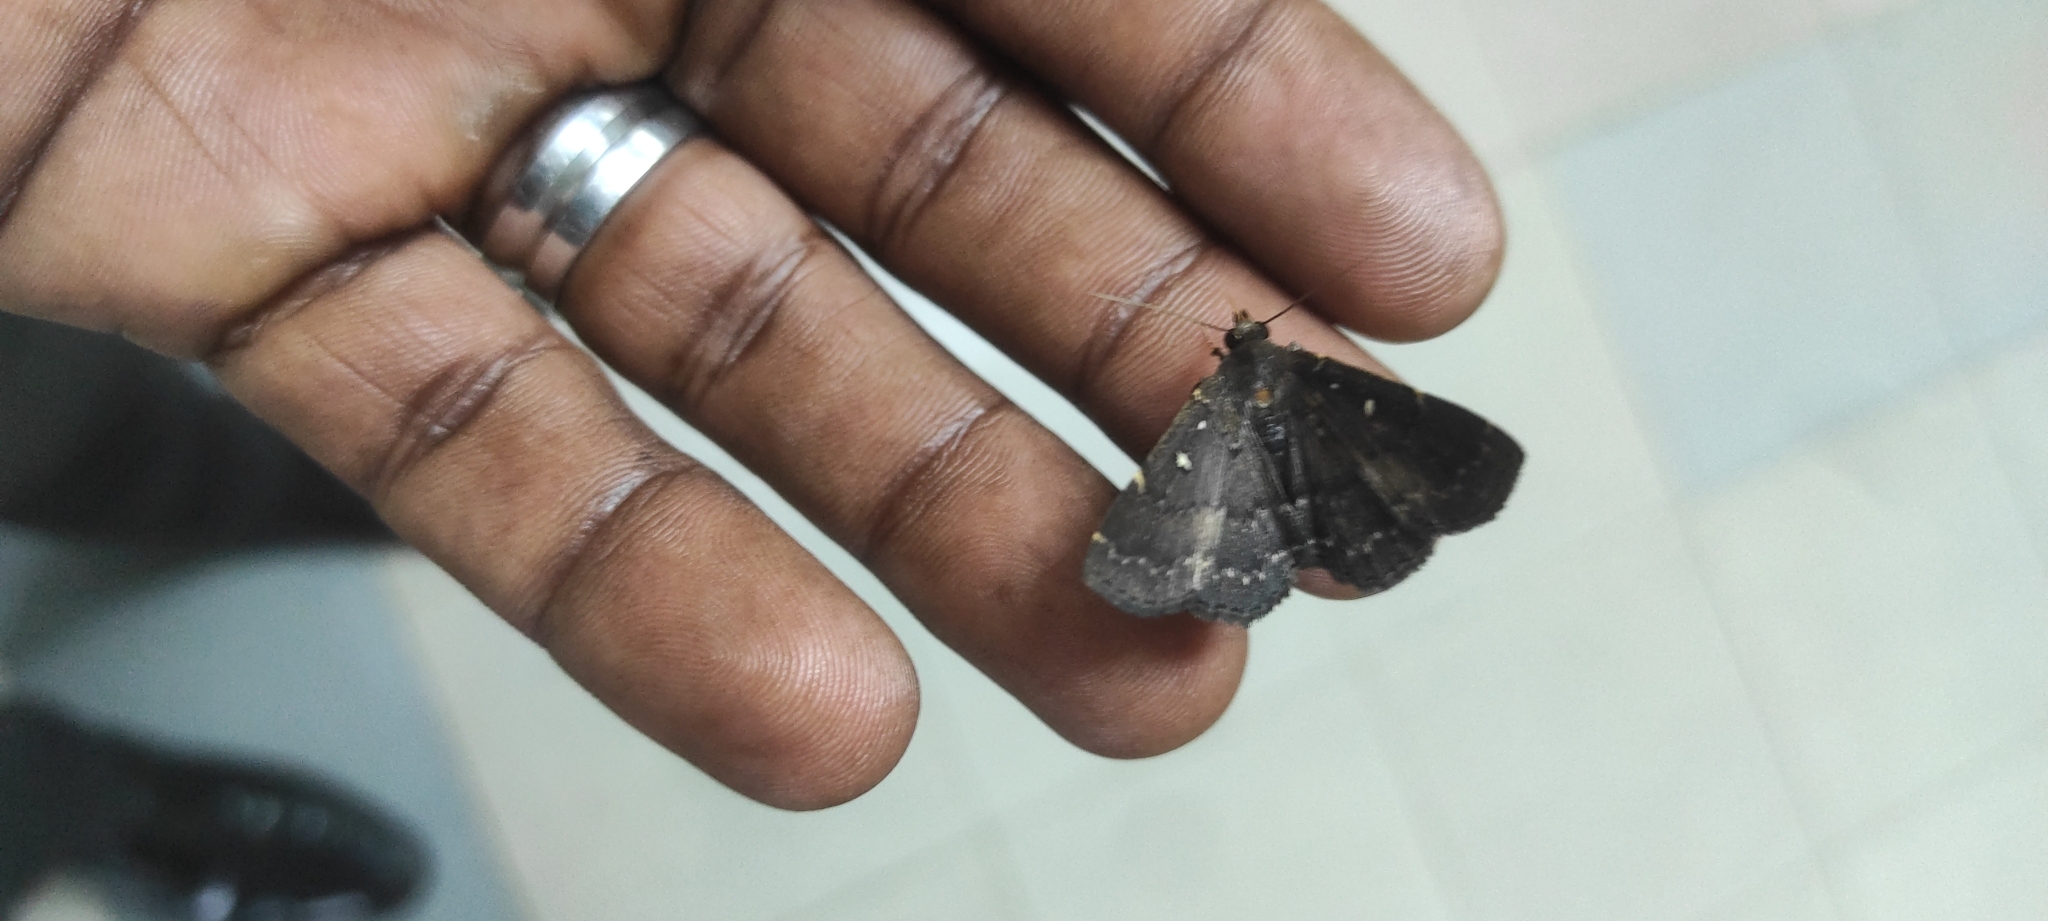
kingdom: Animalia
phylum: Arthropoda
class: Insecta
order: Lepidoptera
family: Erebidae
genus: Bocana
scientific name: Bocana manifestalis
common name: Moth
